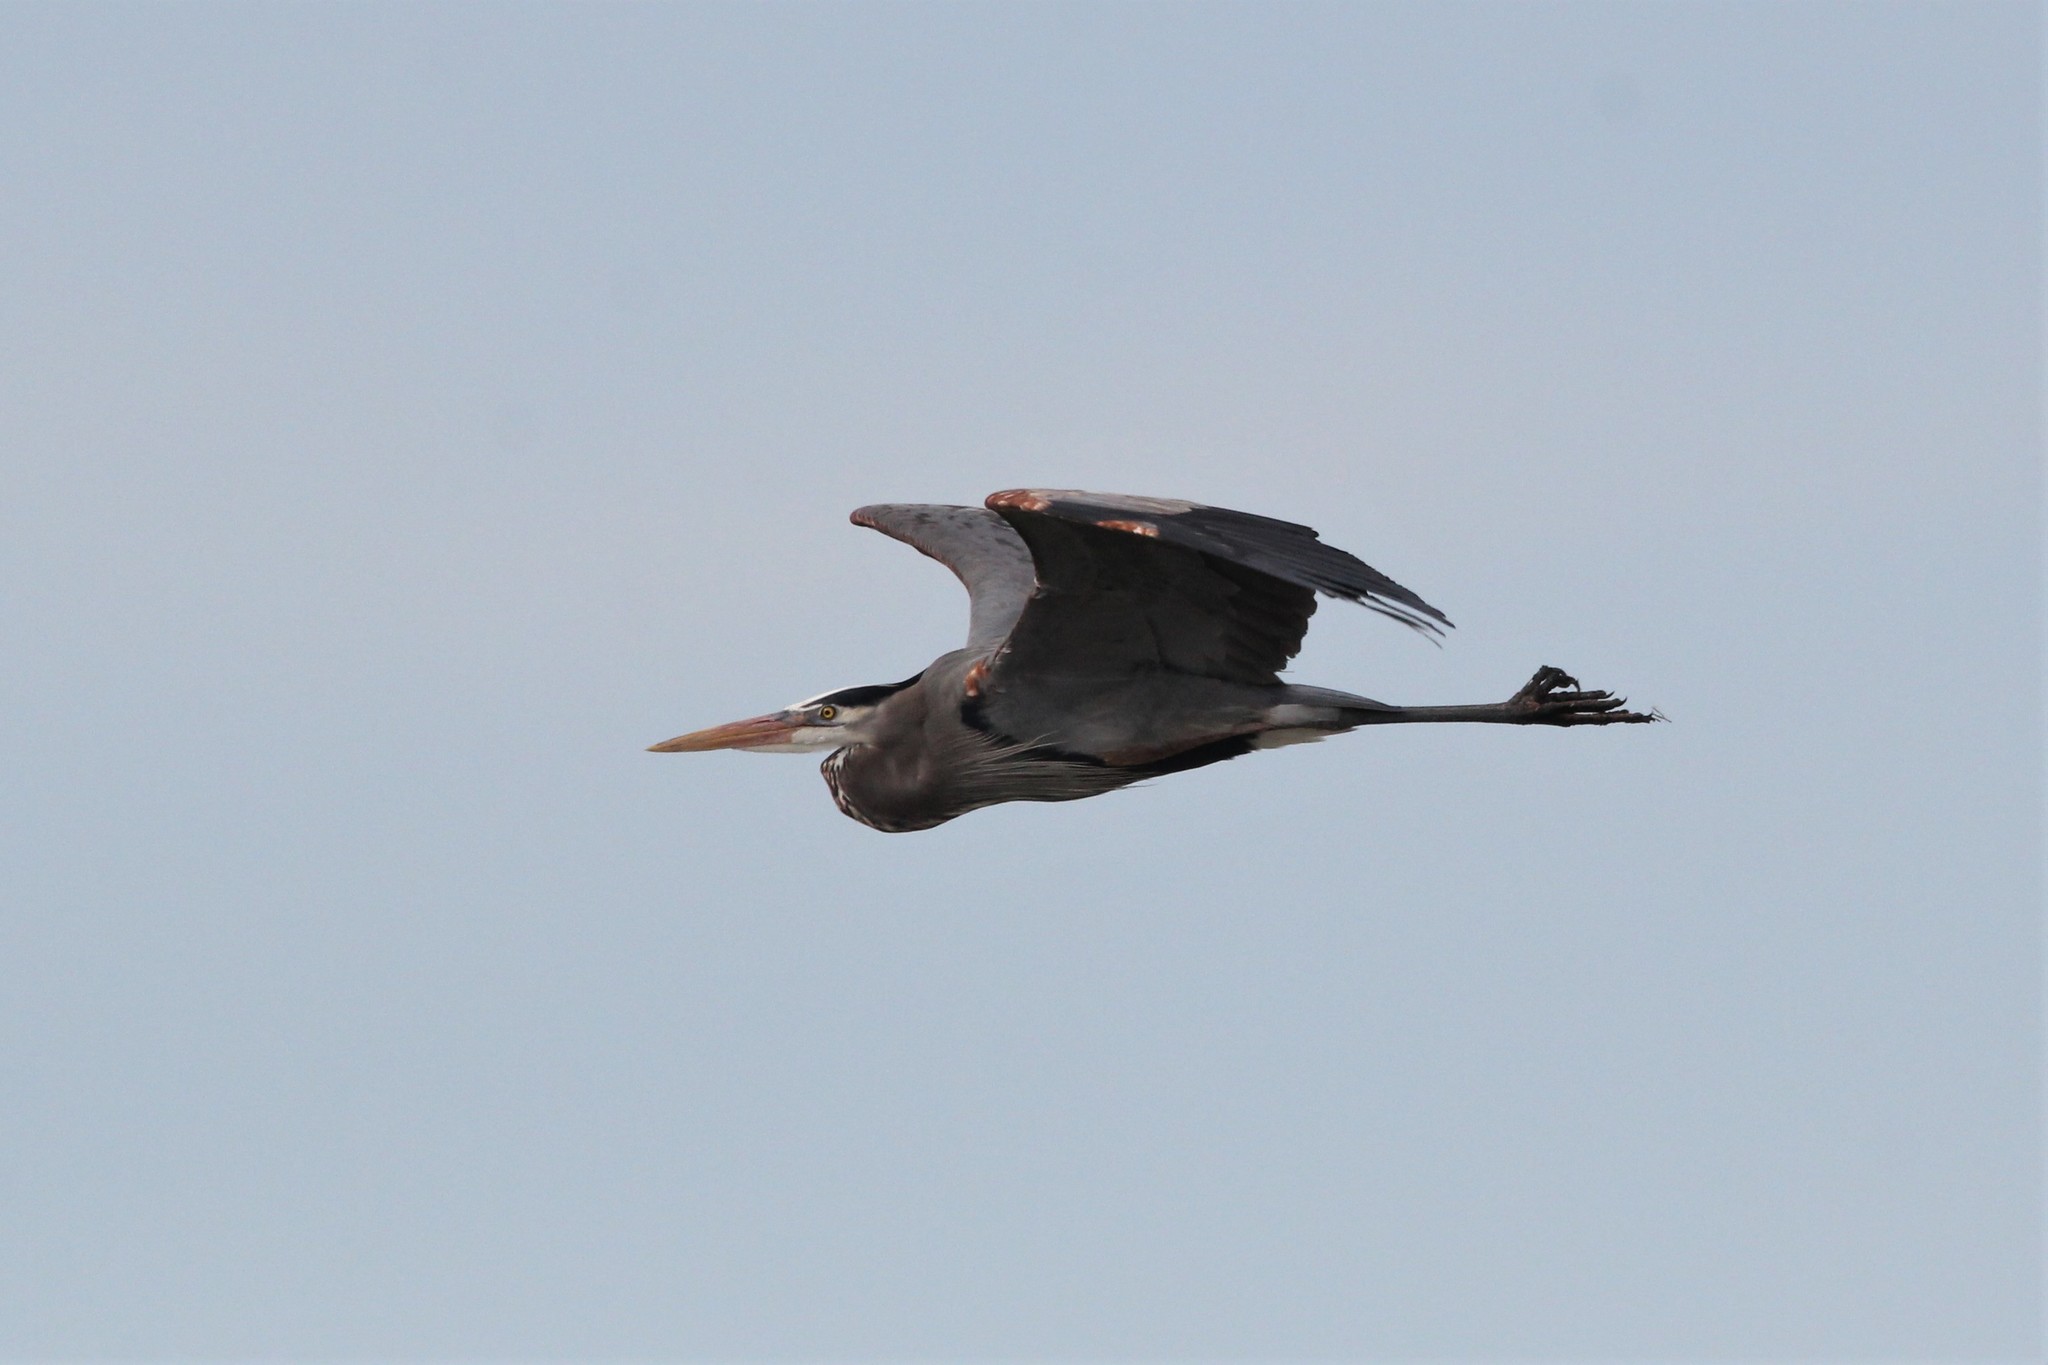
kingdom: Animalia
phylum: Chordata
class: Aves
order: Pelecaniformes
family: Ardeidae
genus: Ardea
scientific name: Ardea herodias
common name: Great blue heron
